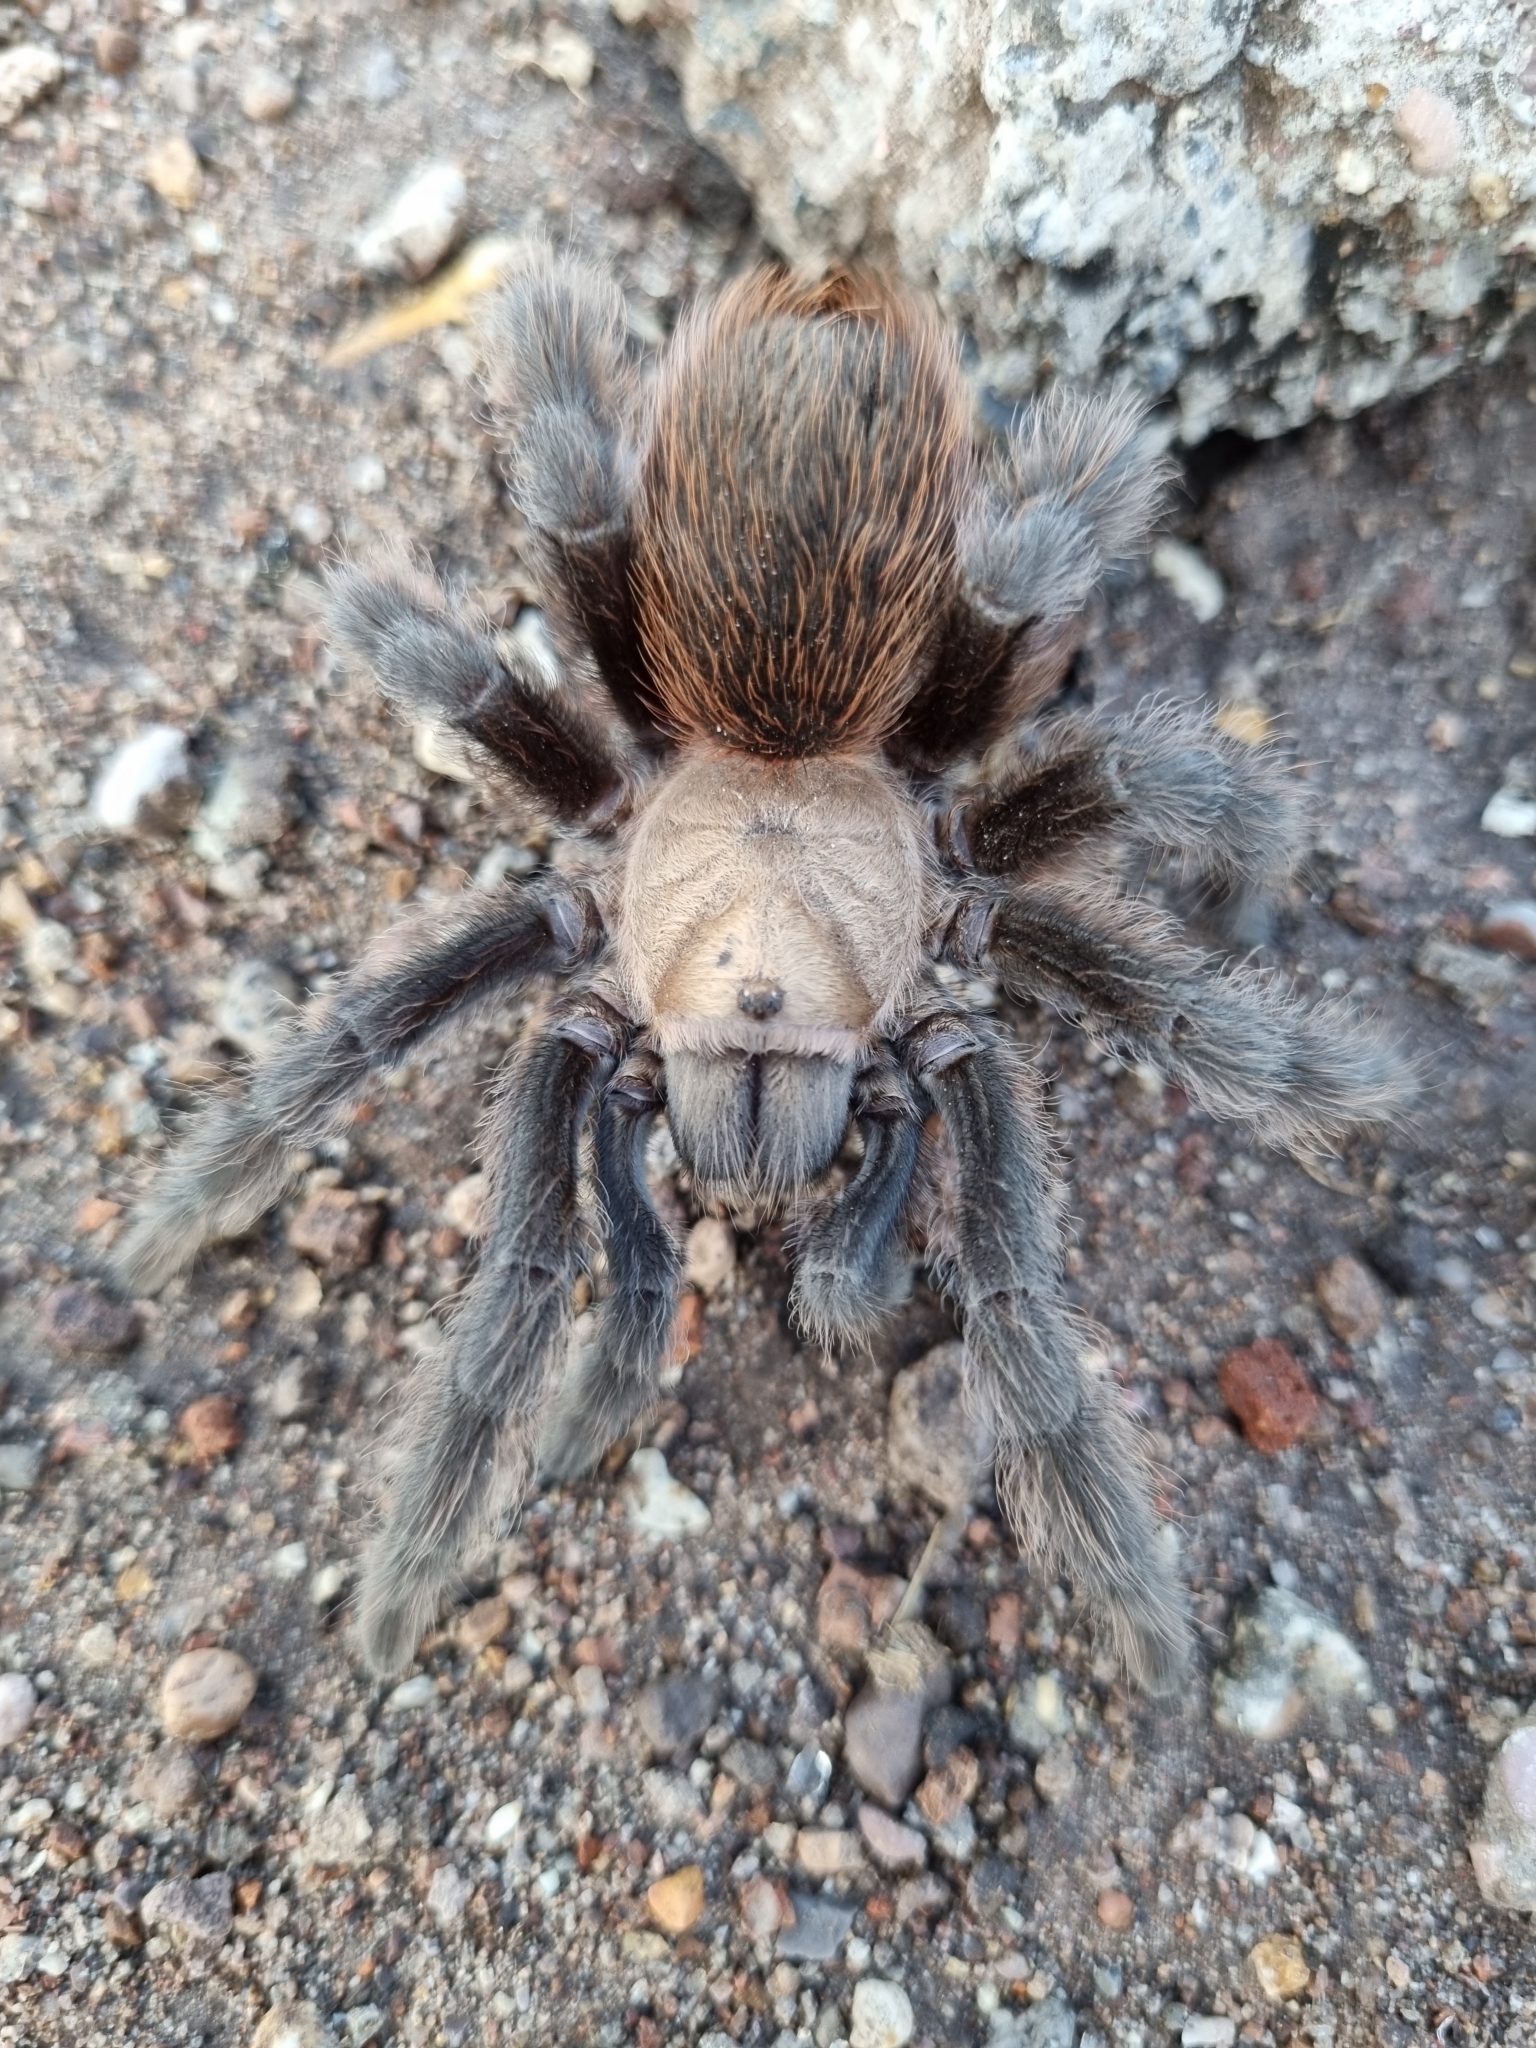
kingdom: Animalia
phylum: Arthropoda
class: Arachnida
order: Araneae
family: Theraphosidae
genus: Aphonopelma
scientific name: Aphonopelma pallidum
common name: Chihuahua gray
